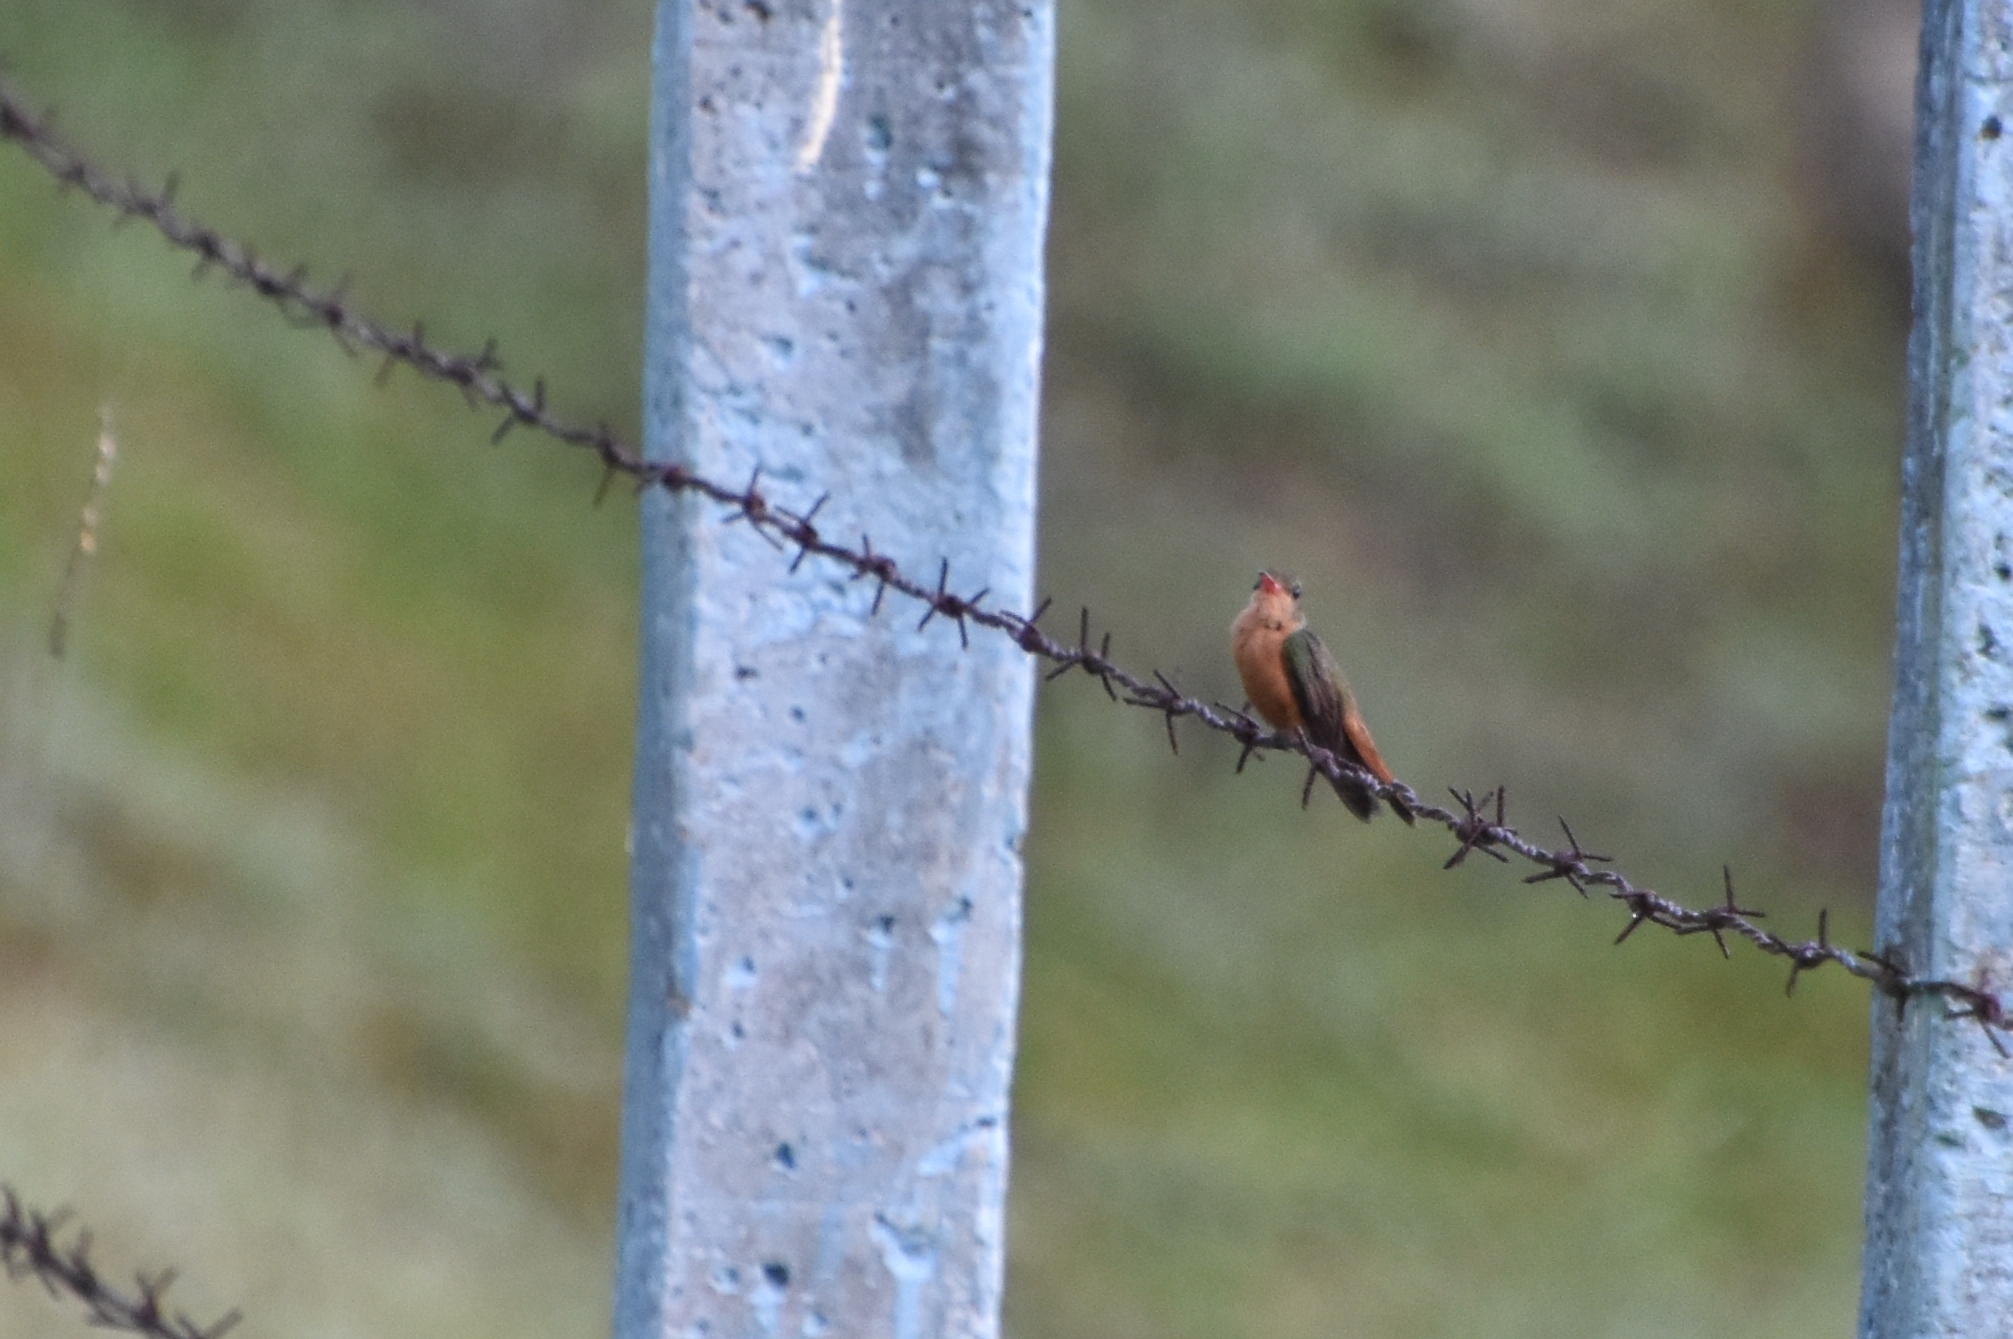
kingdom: Animalia
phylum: Chordata
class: Aves
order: Apodiformes
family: Trochilidae
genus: Amazilia
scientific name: Amazilia rutila
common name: Cinnamon hummingbird
